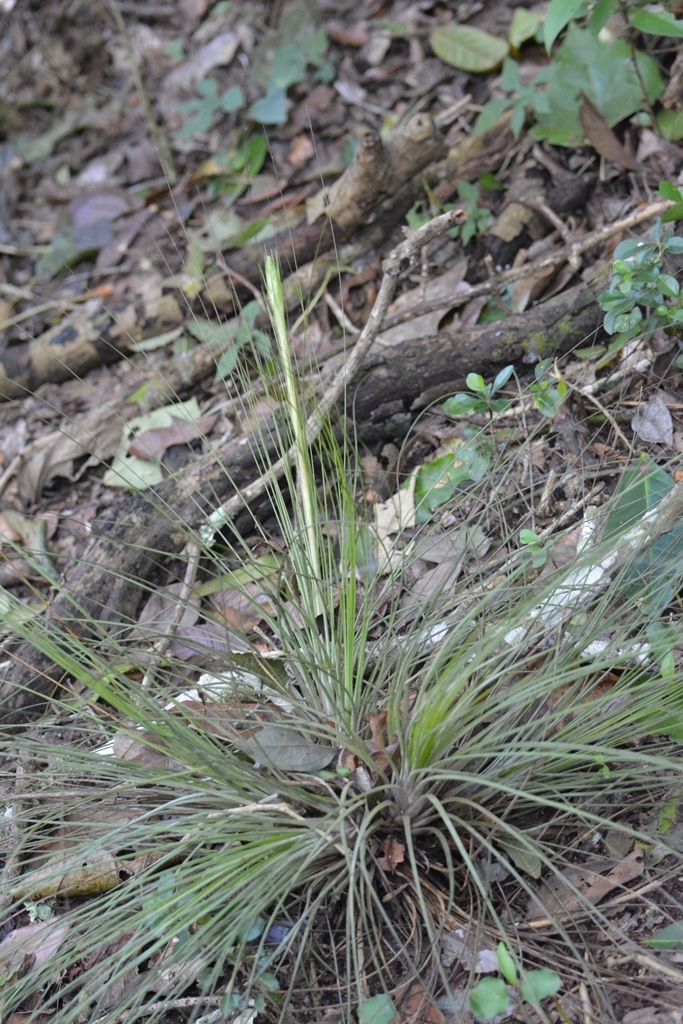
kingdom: Plantae
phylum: Tracheophyta
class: Liliopsida
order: Poales
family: Bromeliaceae
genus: Tillandsia
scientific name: Tillandsia juncea
